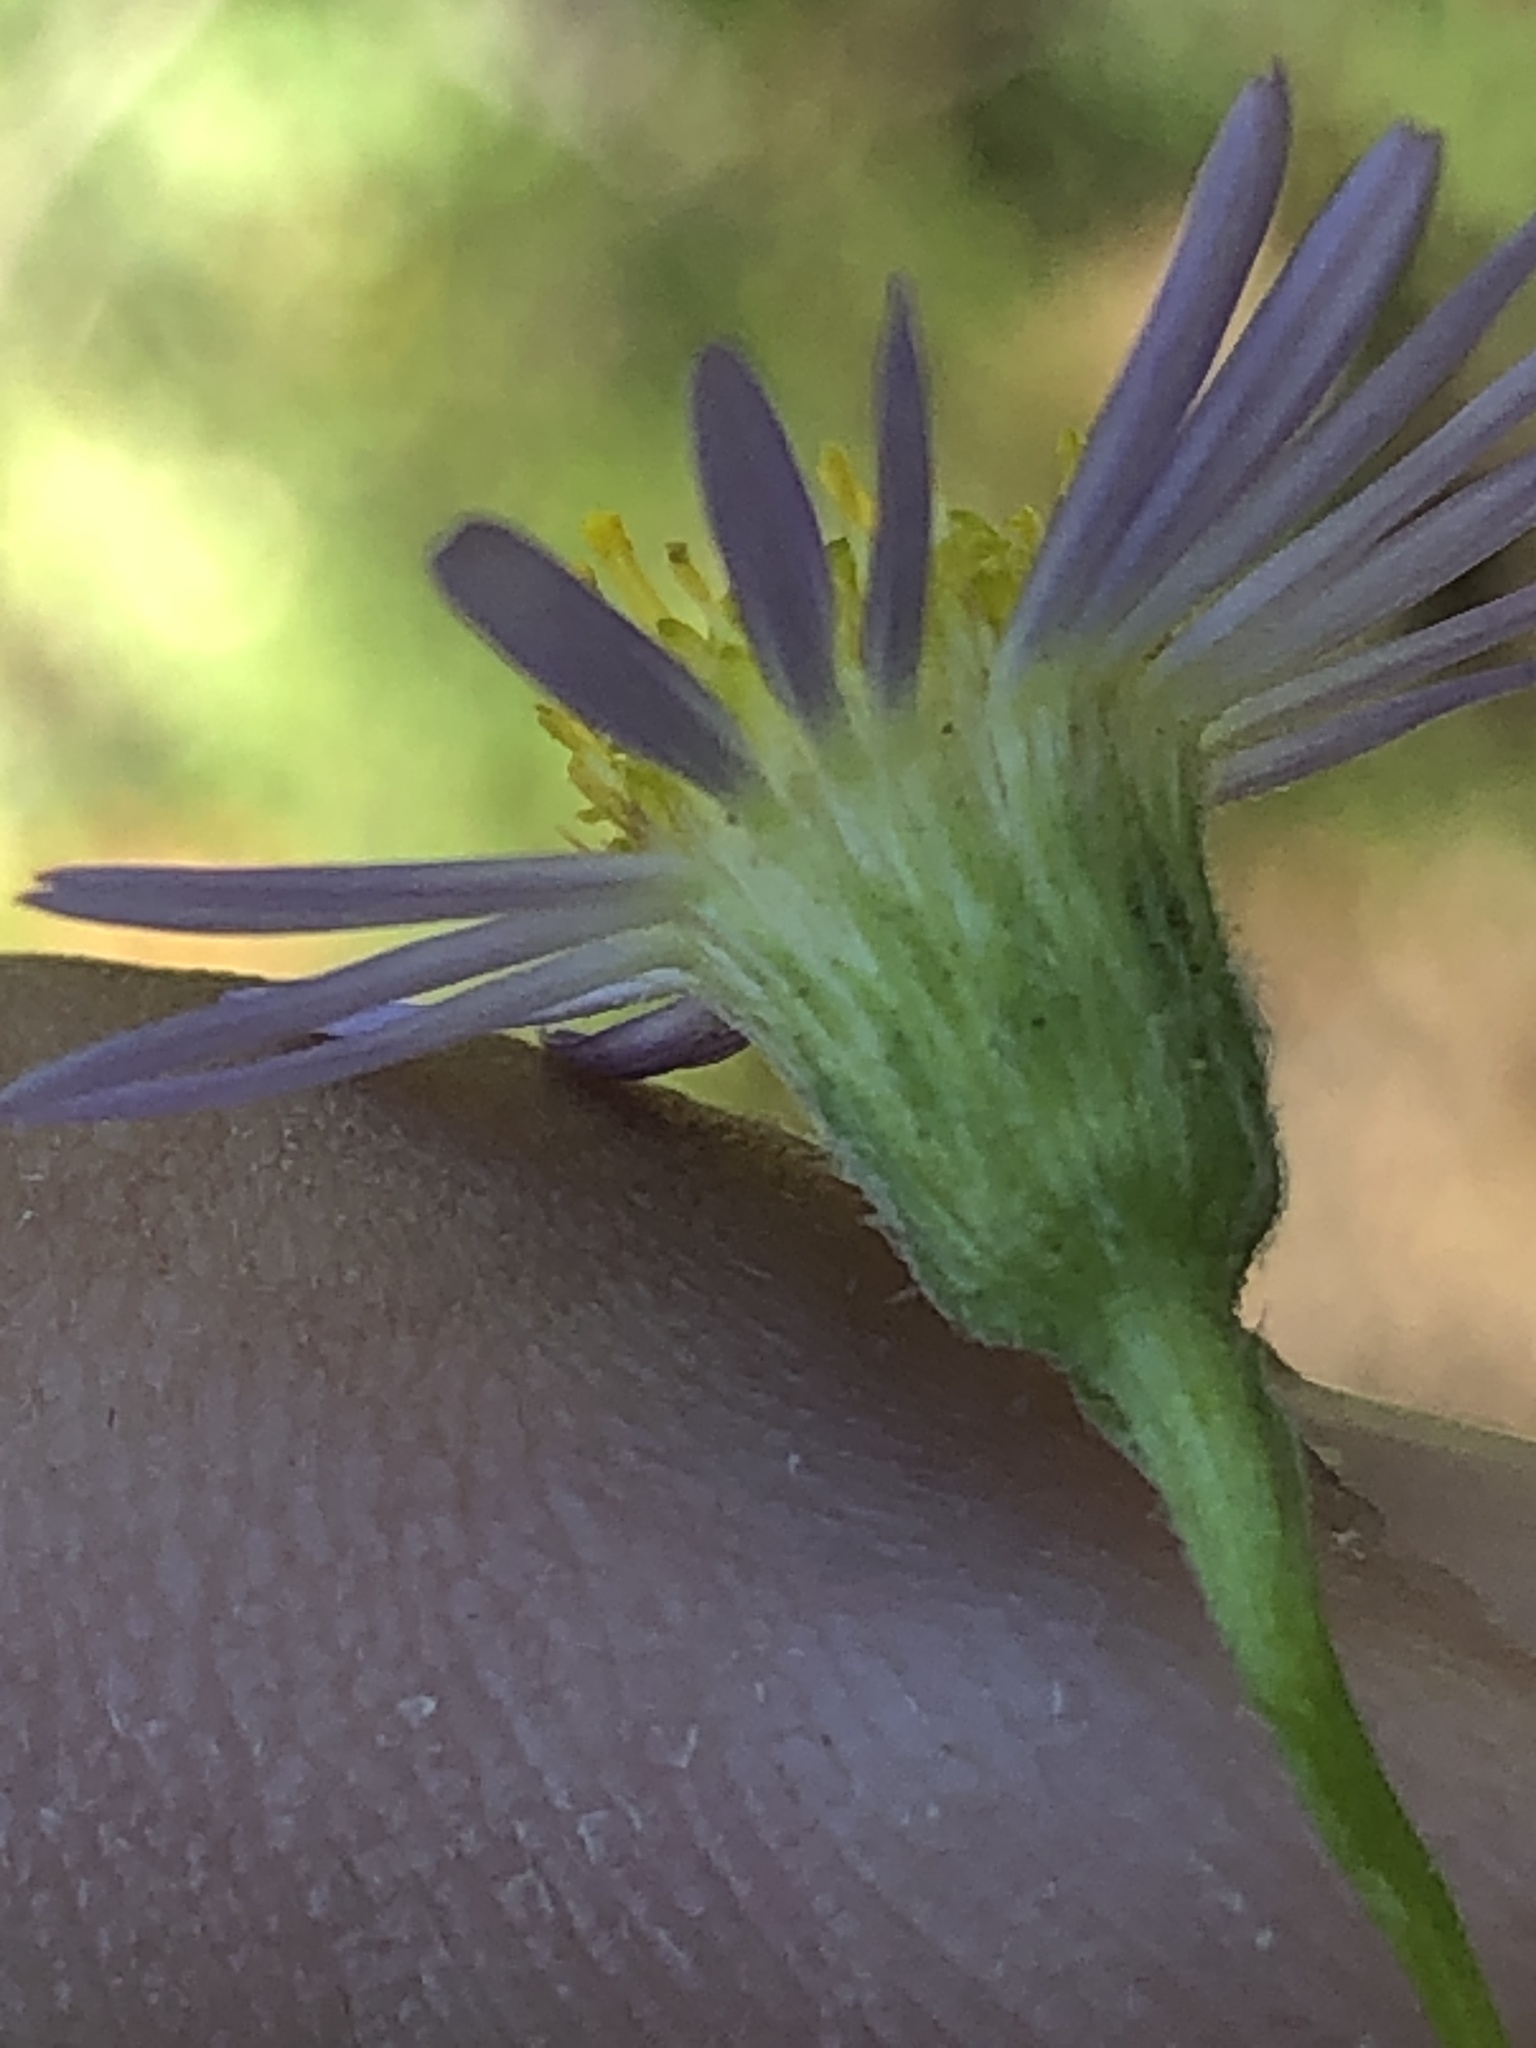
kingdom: Plantae
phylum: Tracheophyta
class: Magnoliopsida
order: Asterales
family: Asteraceae
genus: Erigeron
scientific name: Erigeron foliosus
